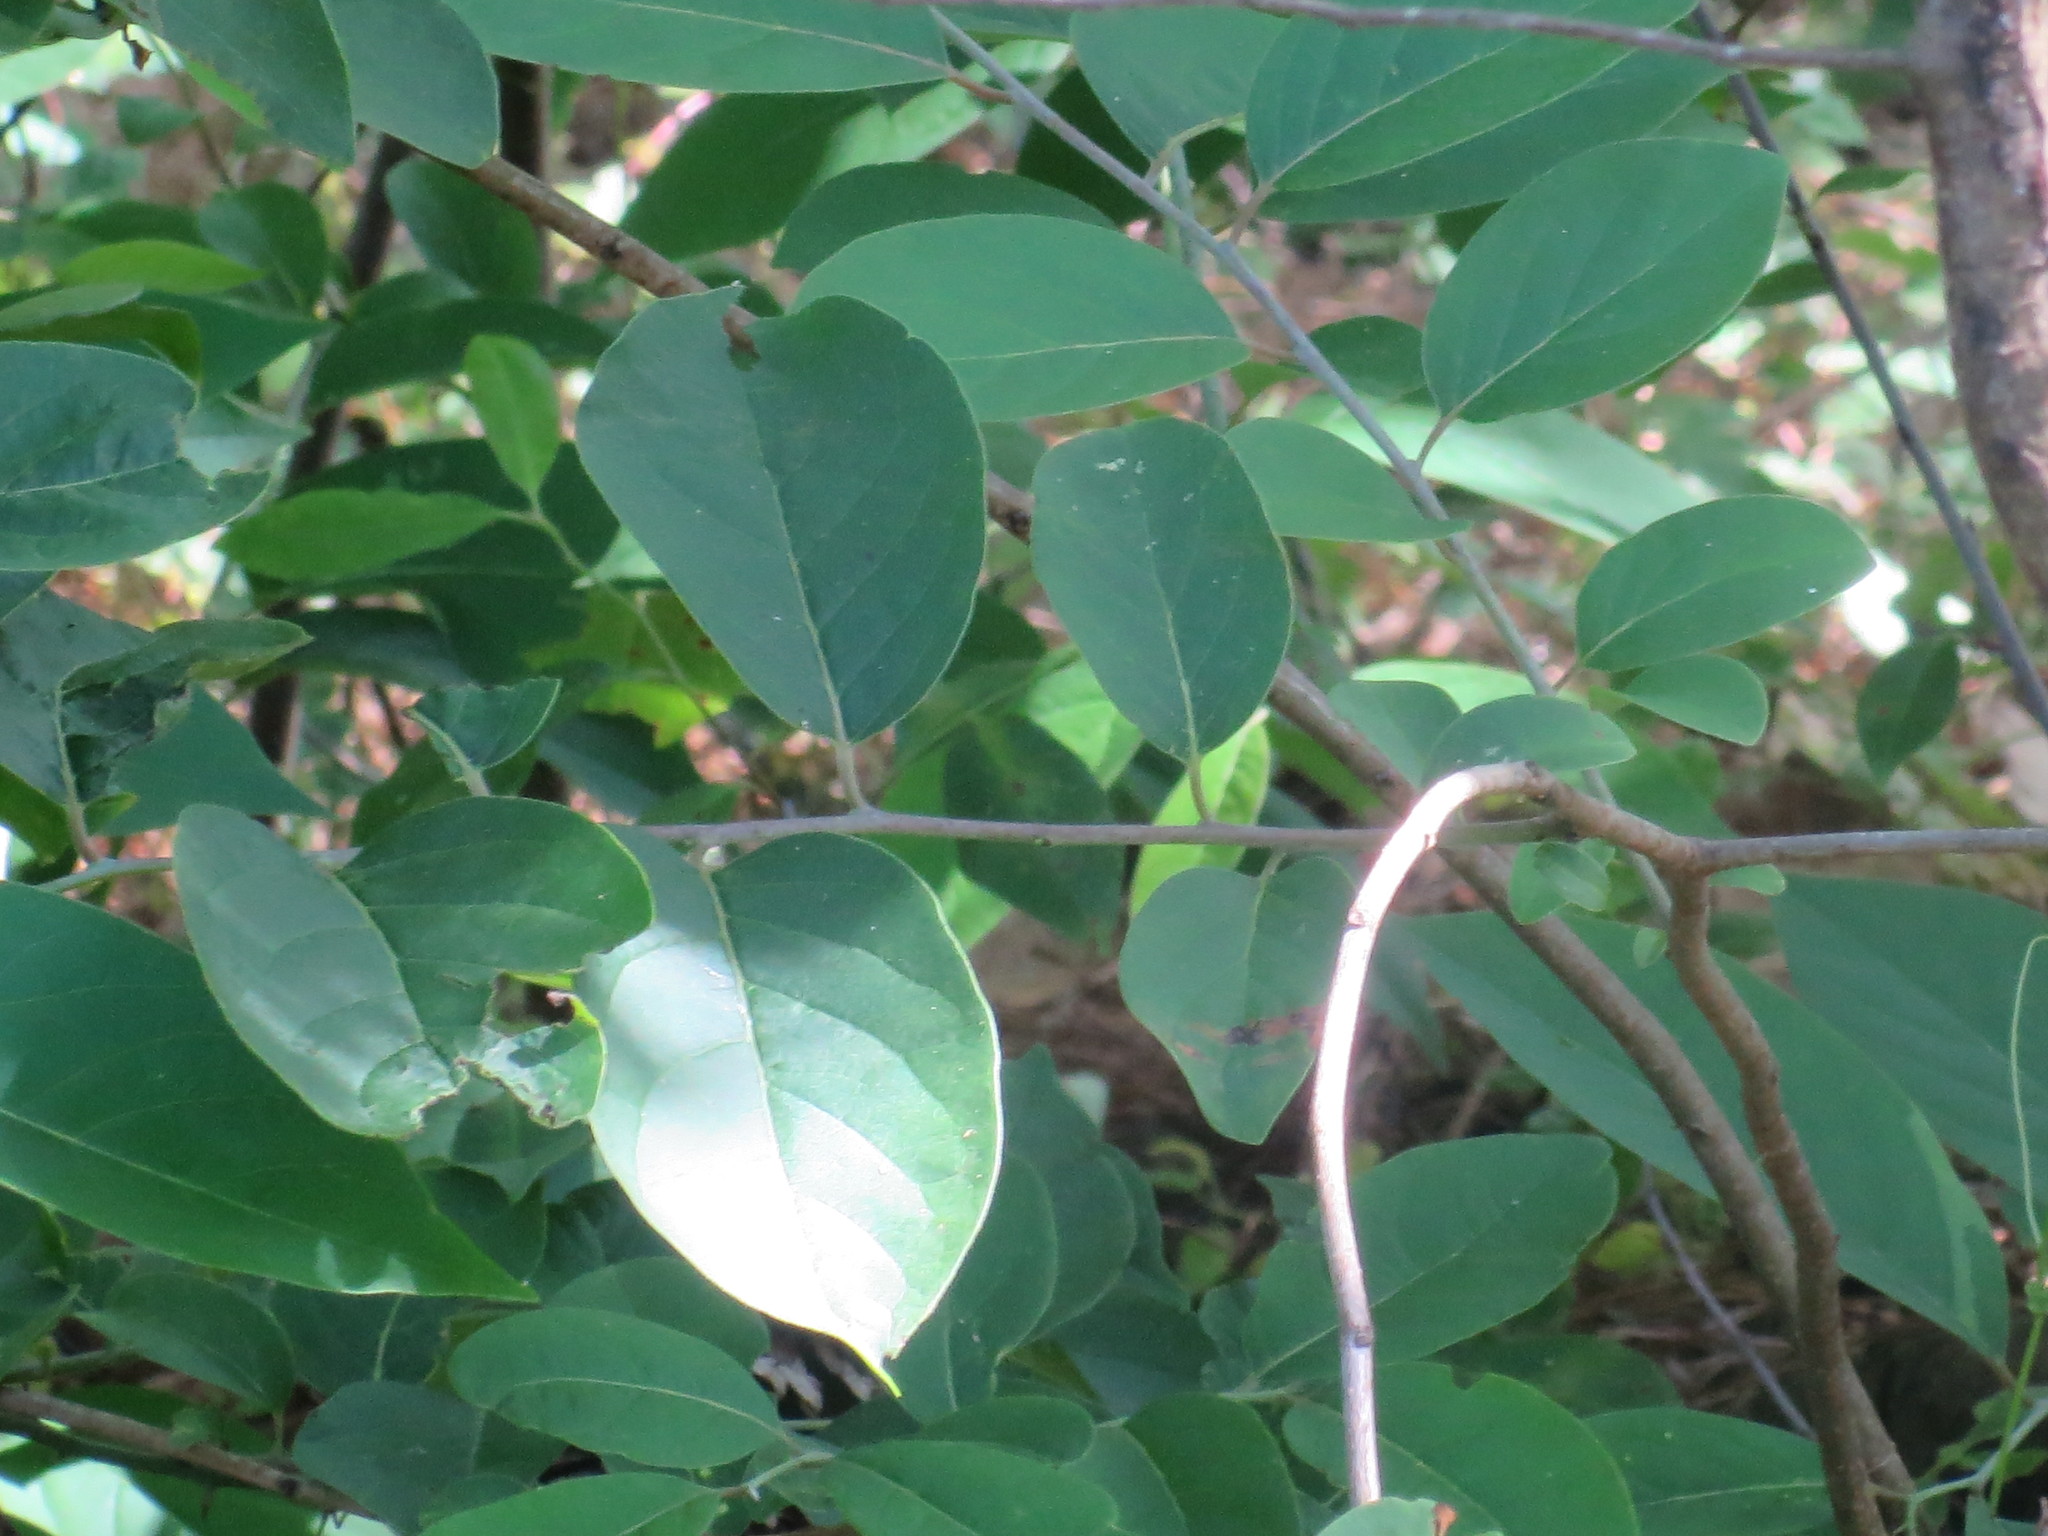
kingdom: Plantae
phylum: Tracheophyta
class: Magnoliopsida
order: Ericales
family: Ebenaceae
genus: Diospyros
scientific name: Diospyros virginiana
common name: Persimmon
